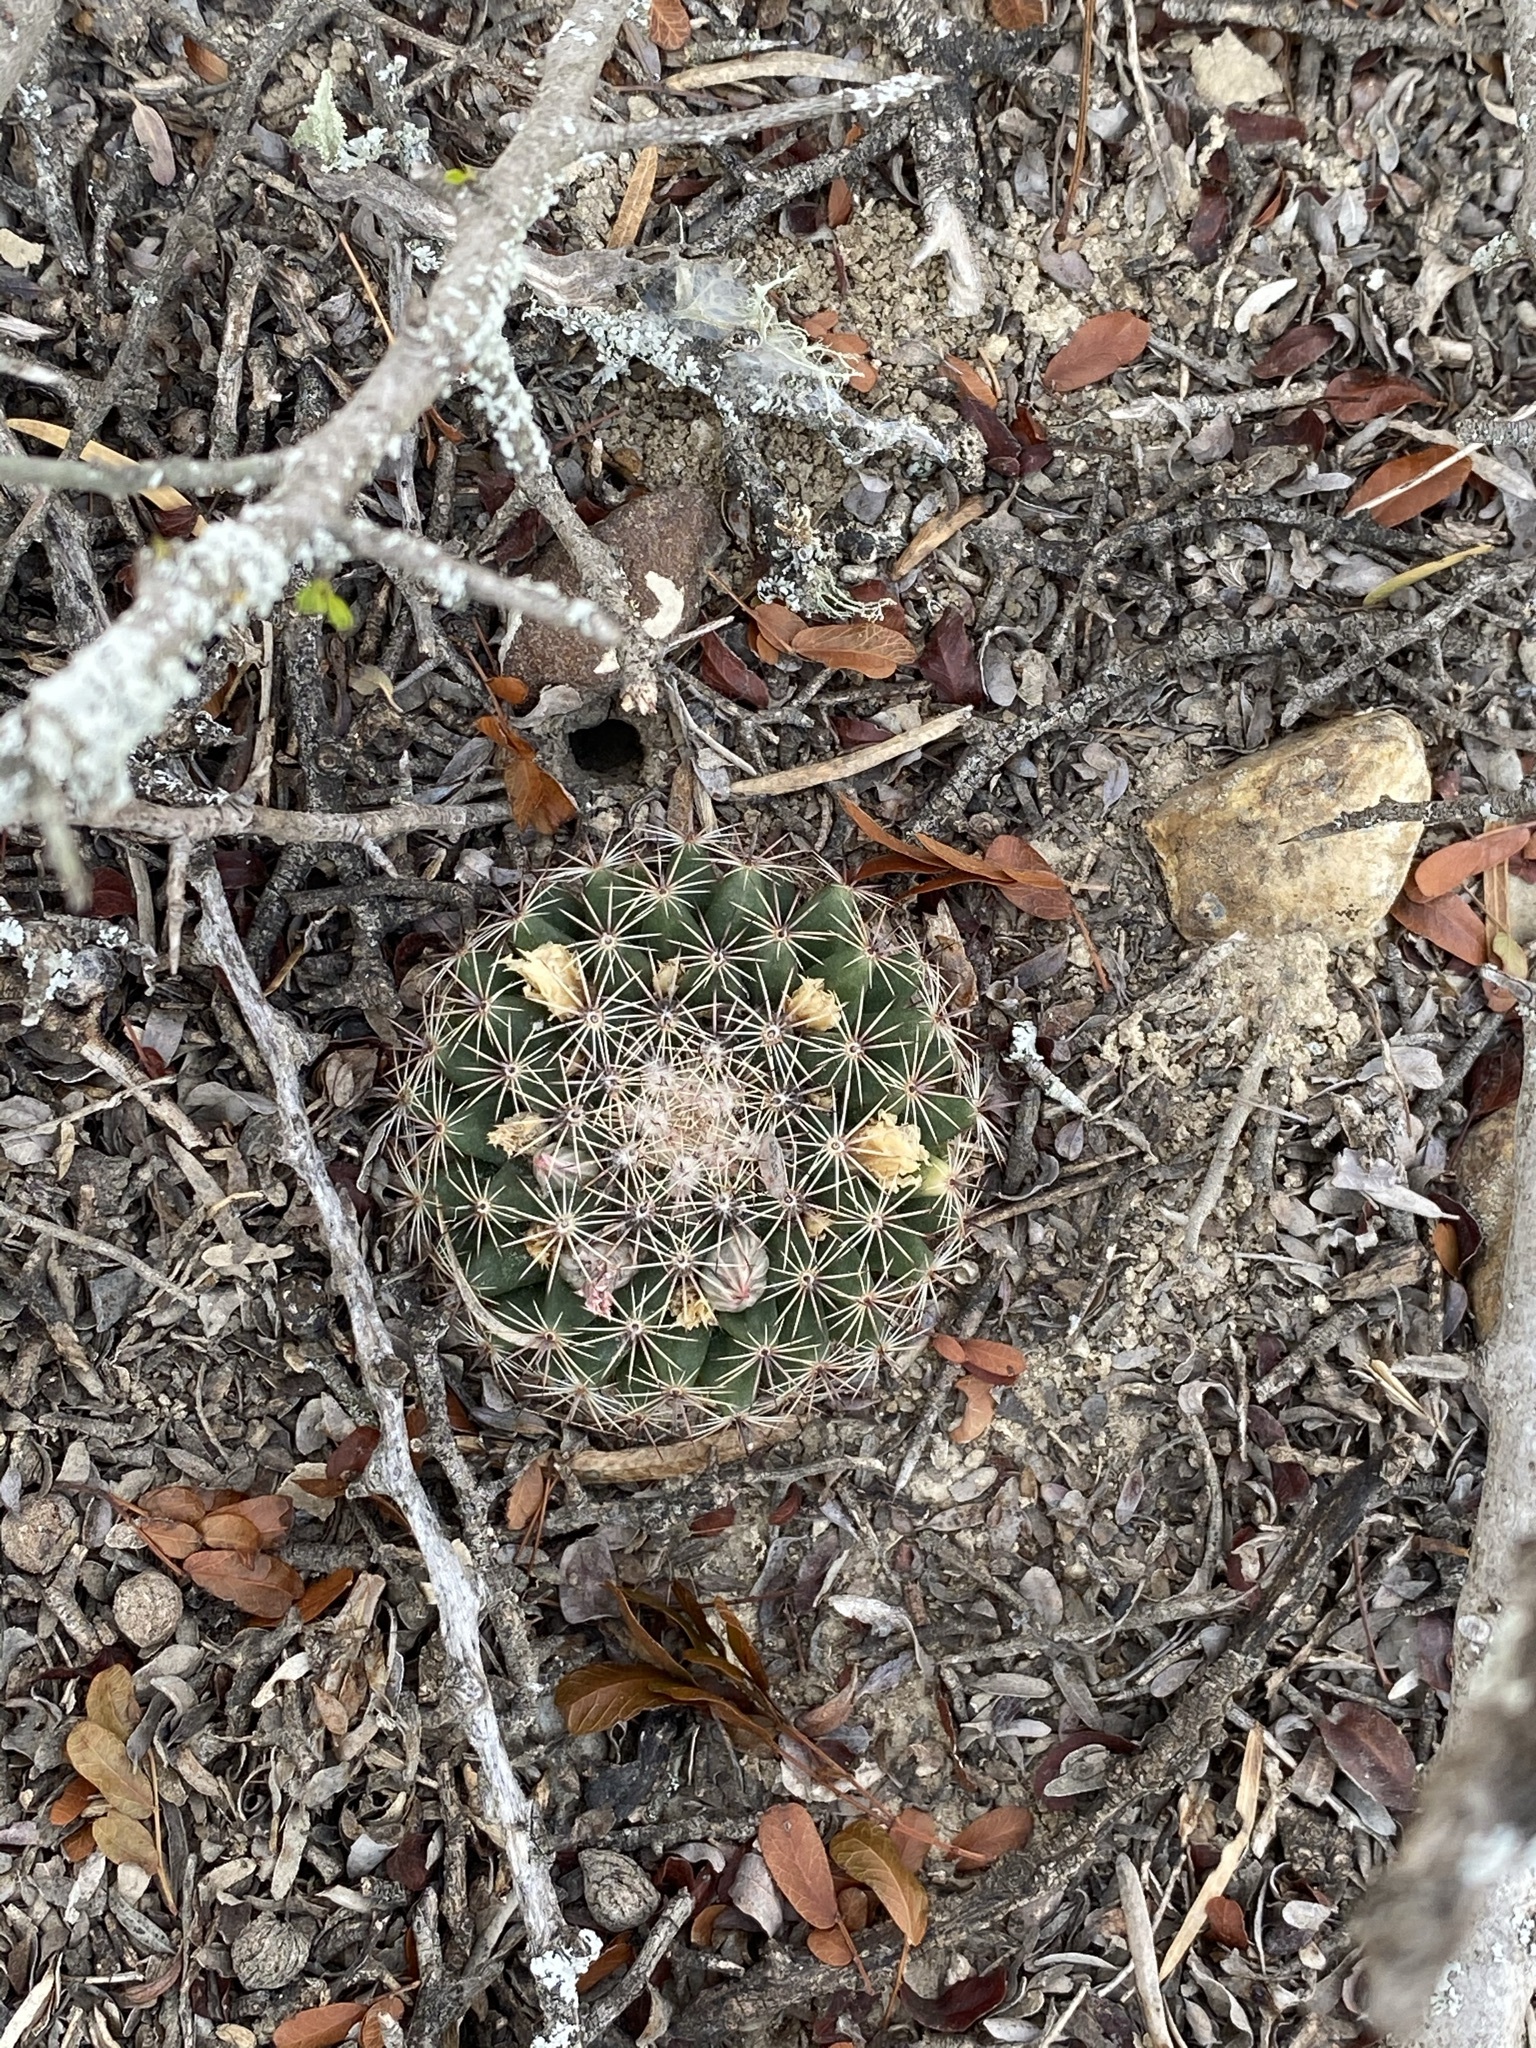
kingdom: Plantae
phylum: Tracheophyta
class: Magnoliopsida
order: Caryophyllales
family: Cactaceae
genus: Mammillaria
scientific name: Mammillaria heyderi
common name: Little nipple cactus
